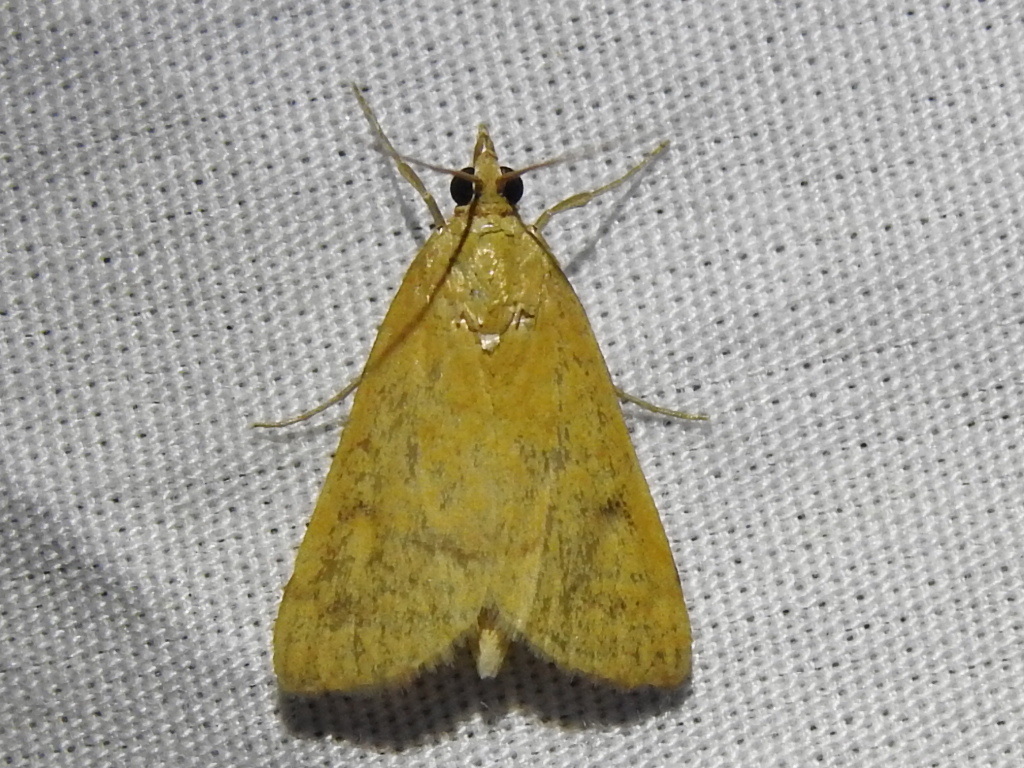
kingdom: Animalia
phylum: Arthropoda
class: Insecta
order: Lepidoptera
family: Crambidae
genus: Achyra
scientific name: Achyra rantalis
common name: Garden webworm
